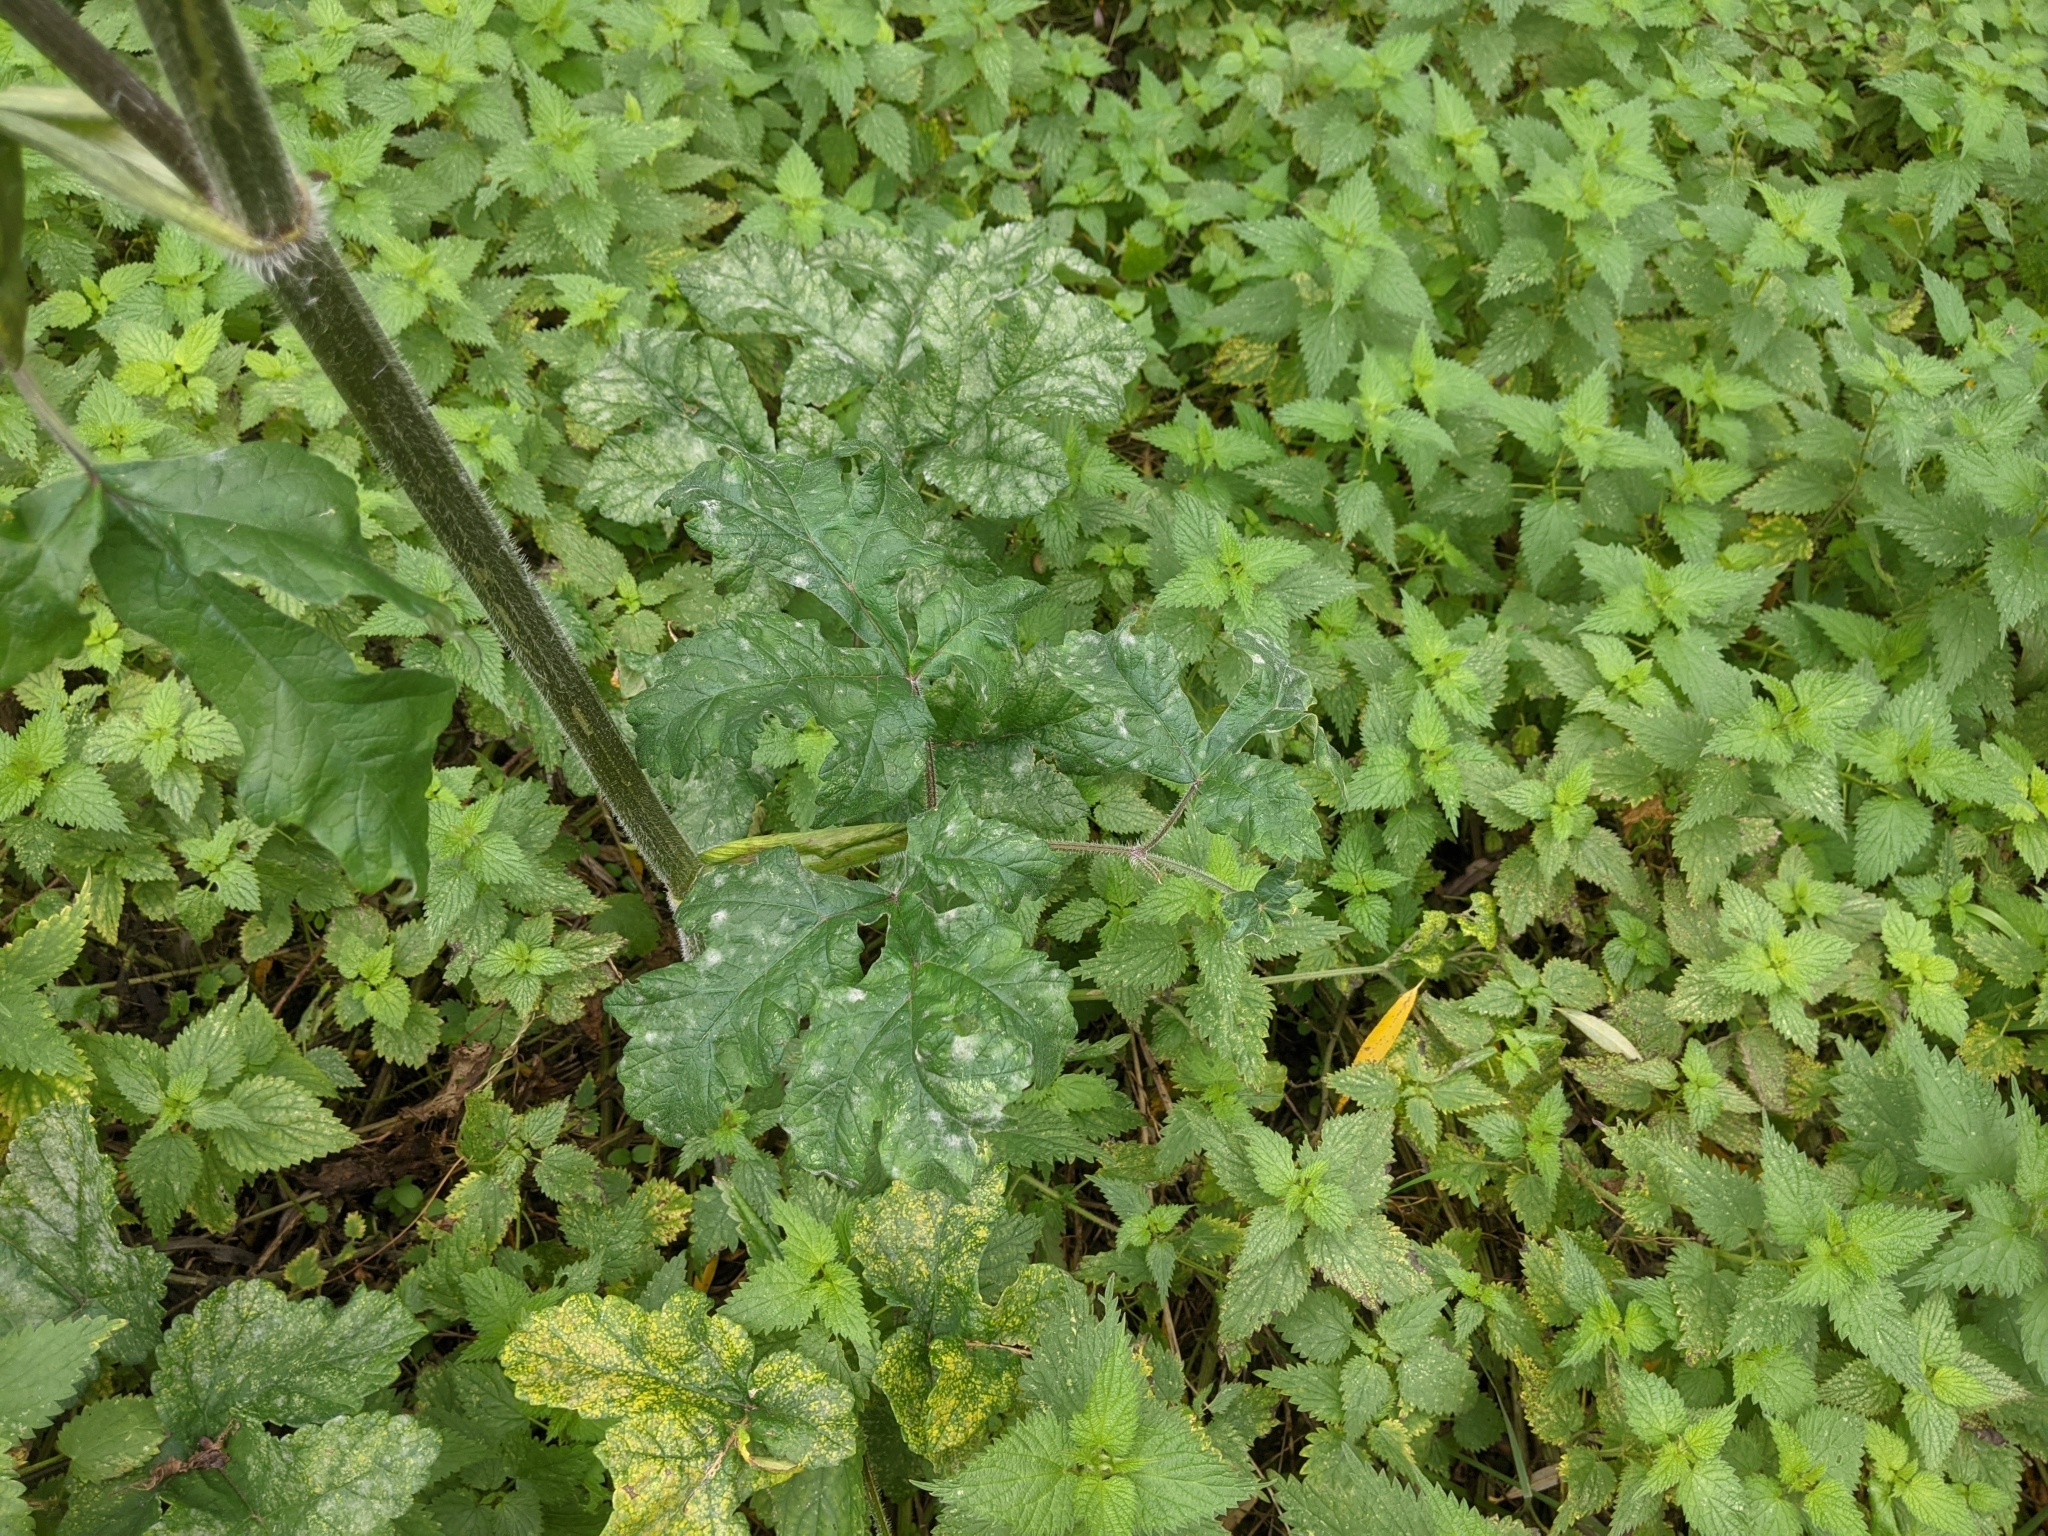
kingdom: Plantae
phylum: Tracheophyta
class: Magnoliopsida
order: Apiales
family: Apiaceae
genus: Heracleum
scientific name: Heracleum sphondylium
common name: Hogweed
